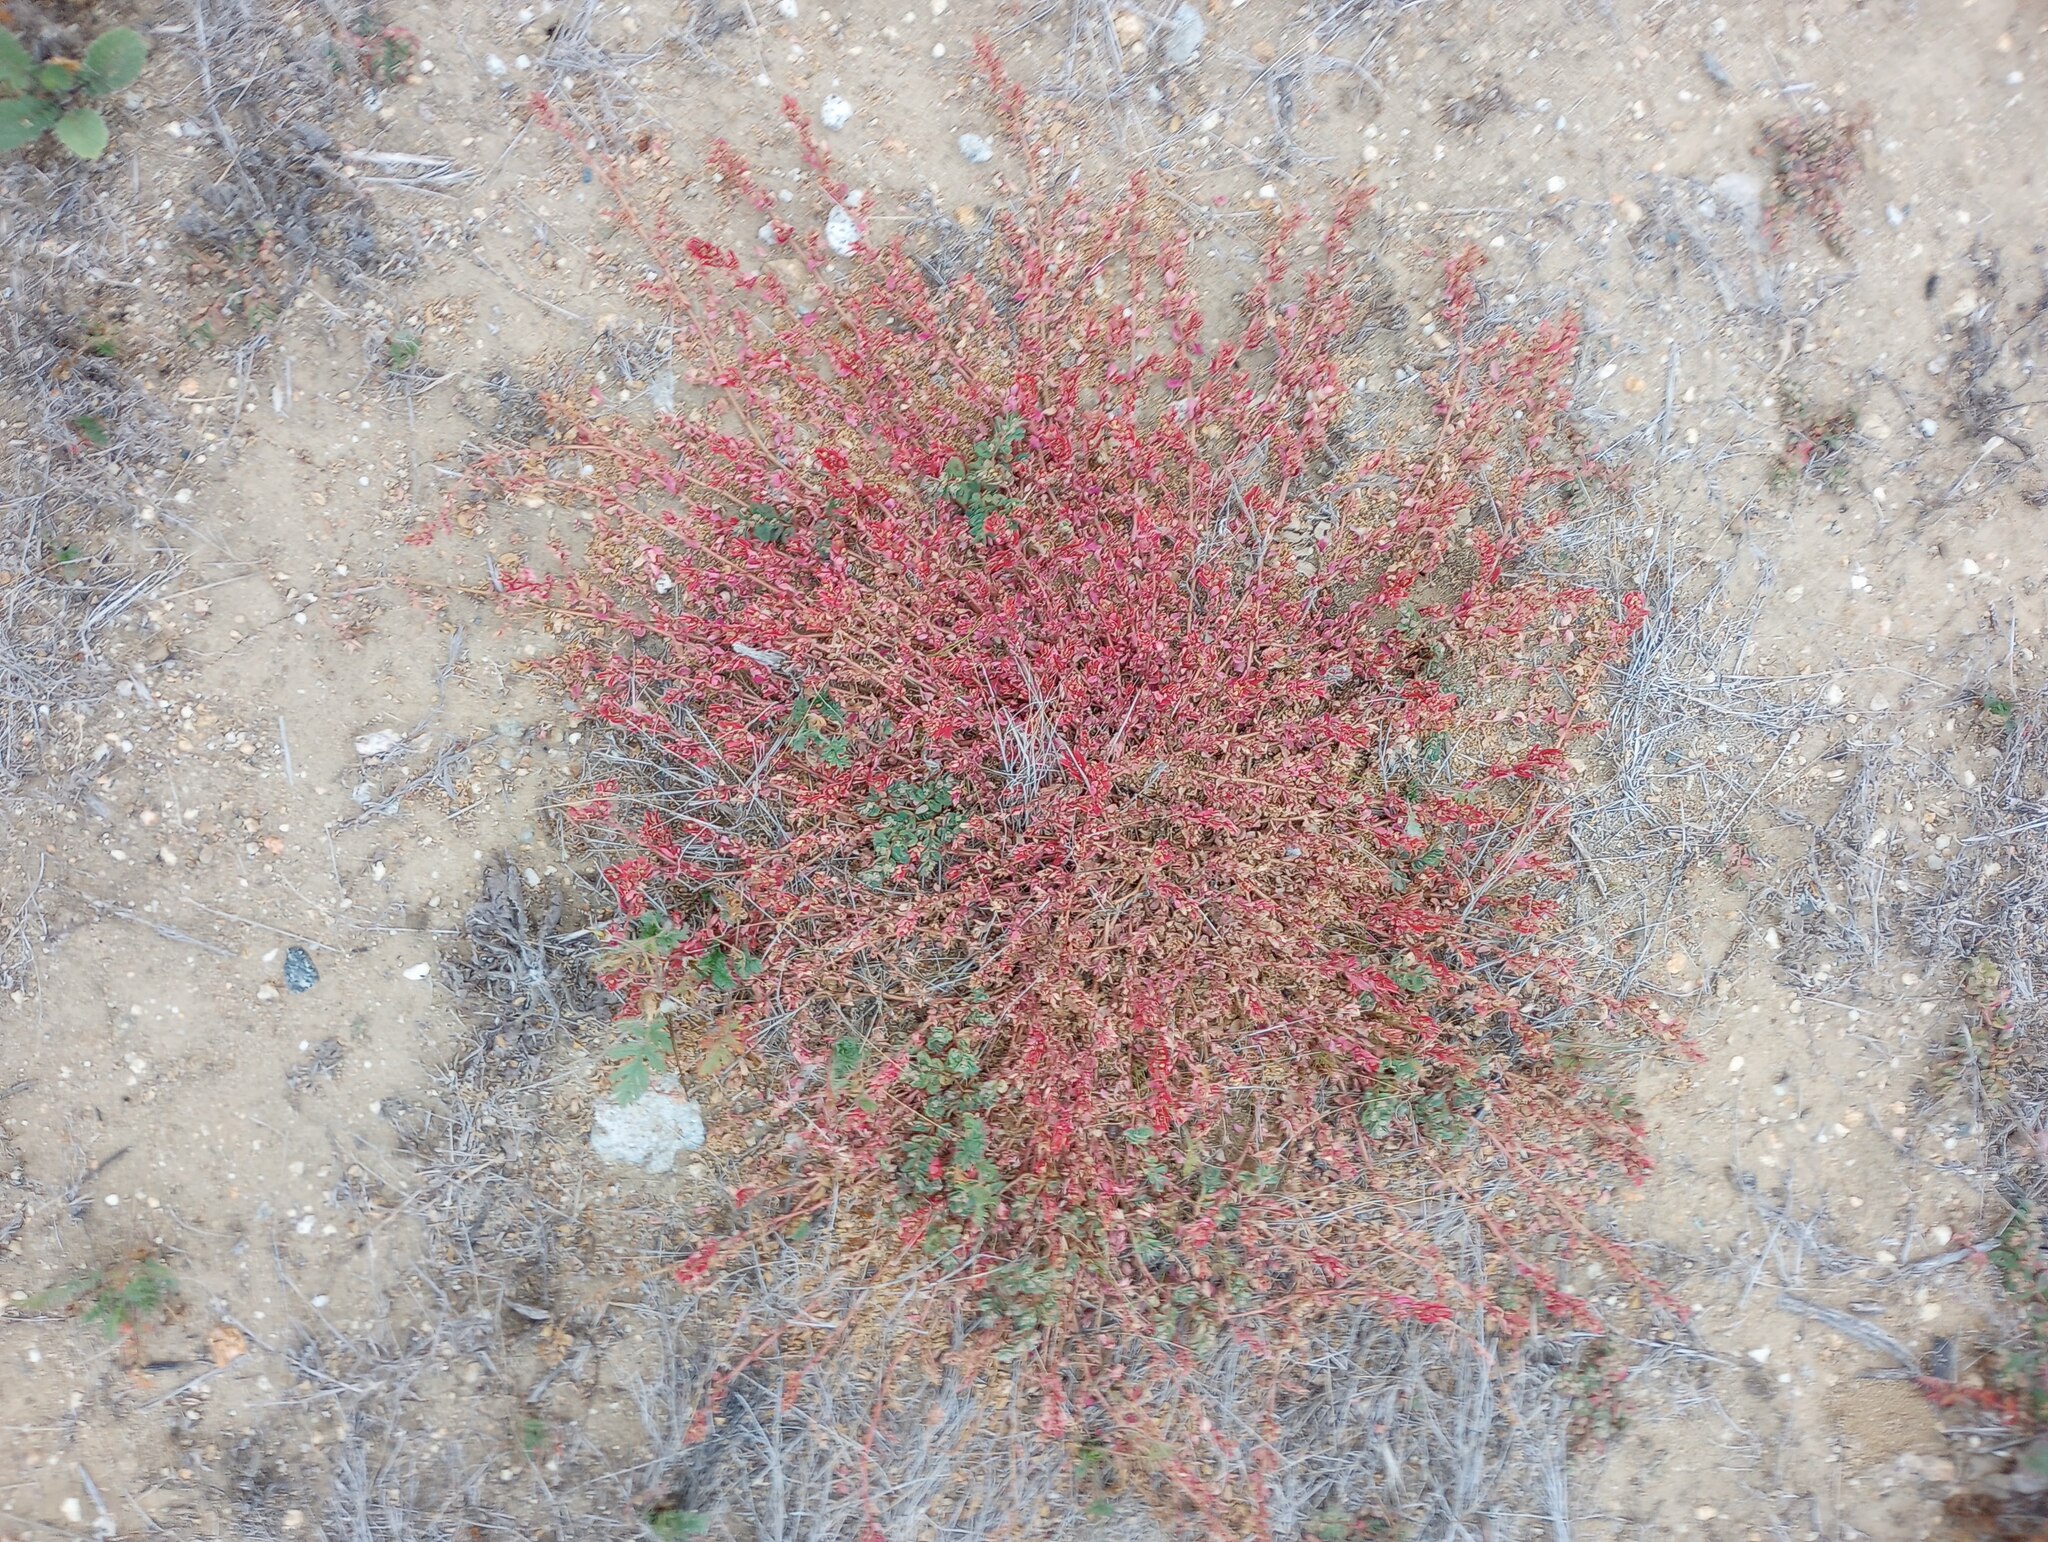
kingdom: Plantae
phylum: Tracheophyta
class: Magnoliopsida
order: Malpighiales
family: Euphorbiaceae
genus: Euphorbia
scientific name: Euphorbia maculata
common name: Spotted spurge
